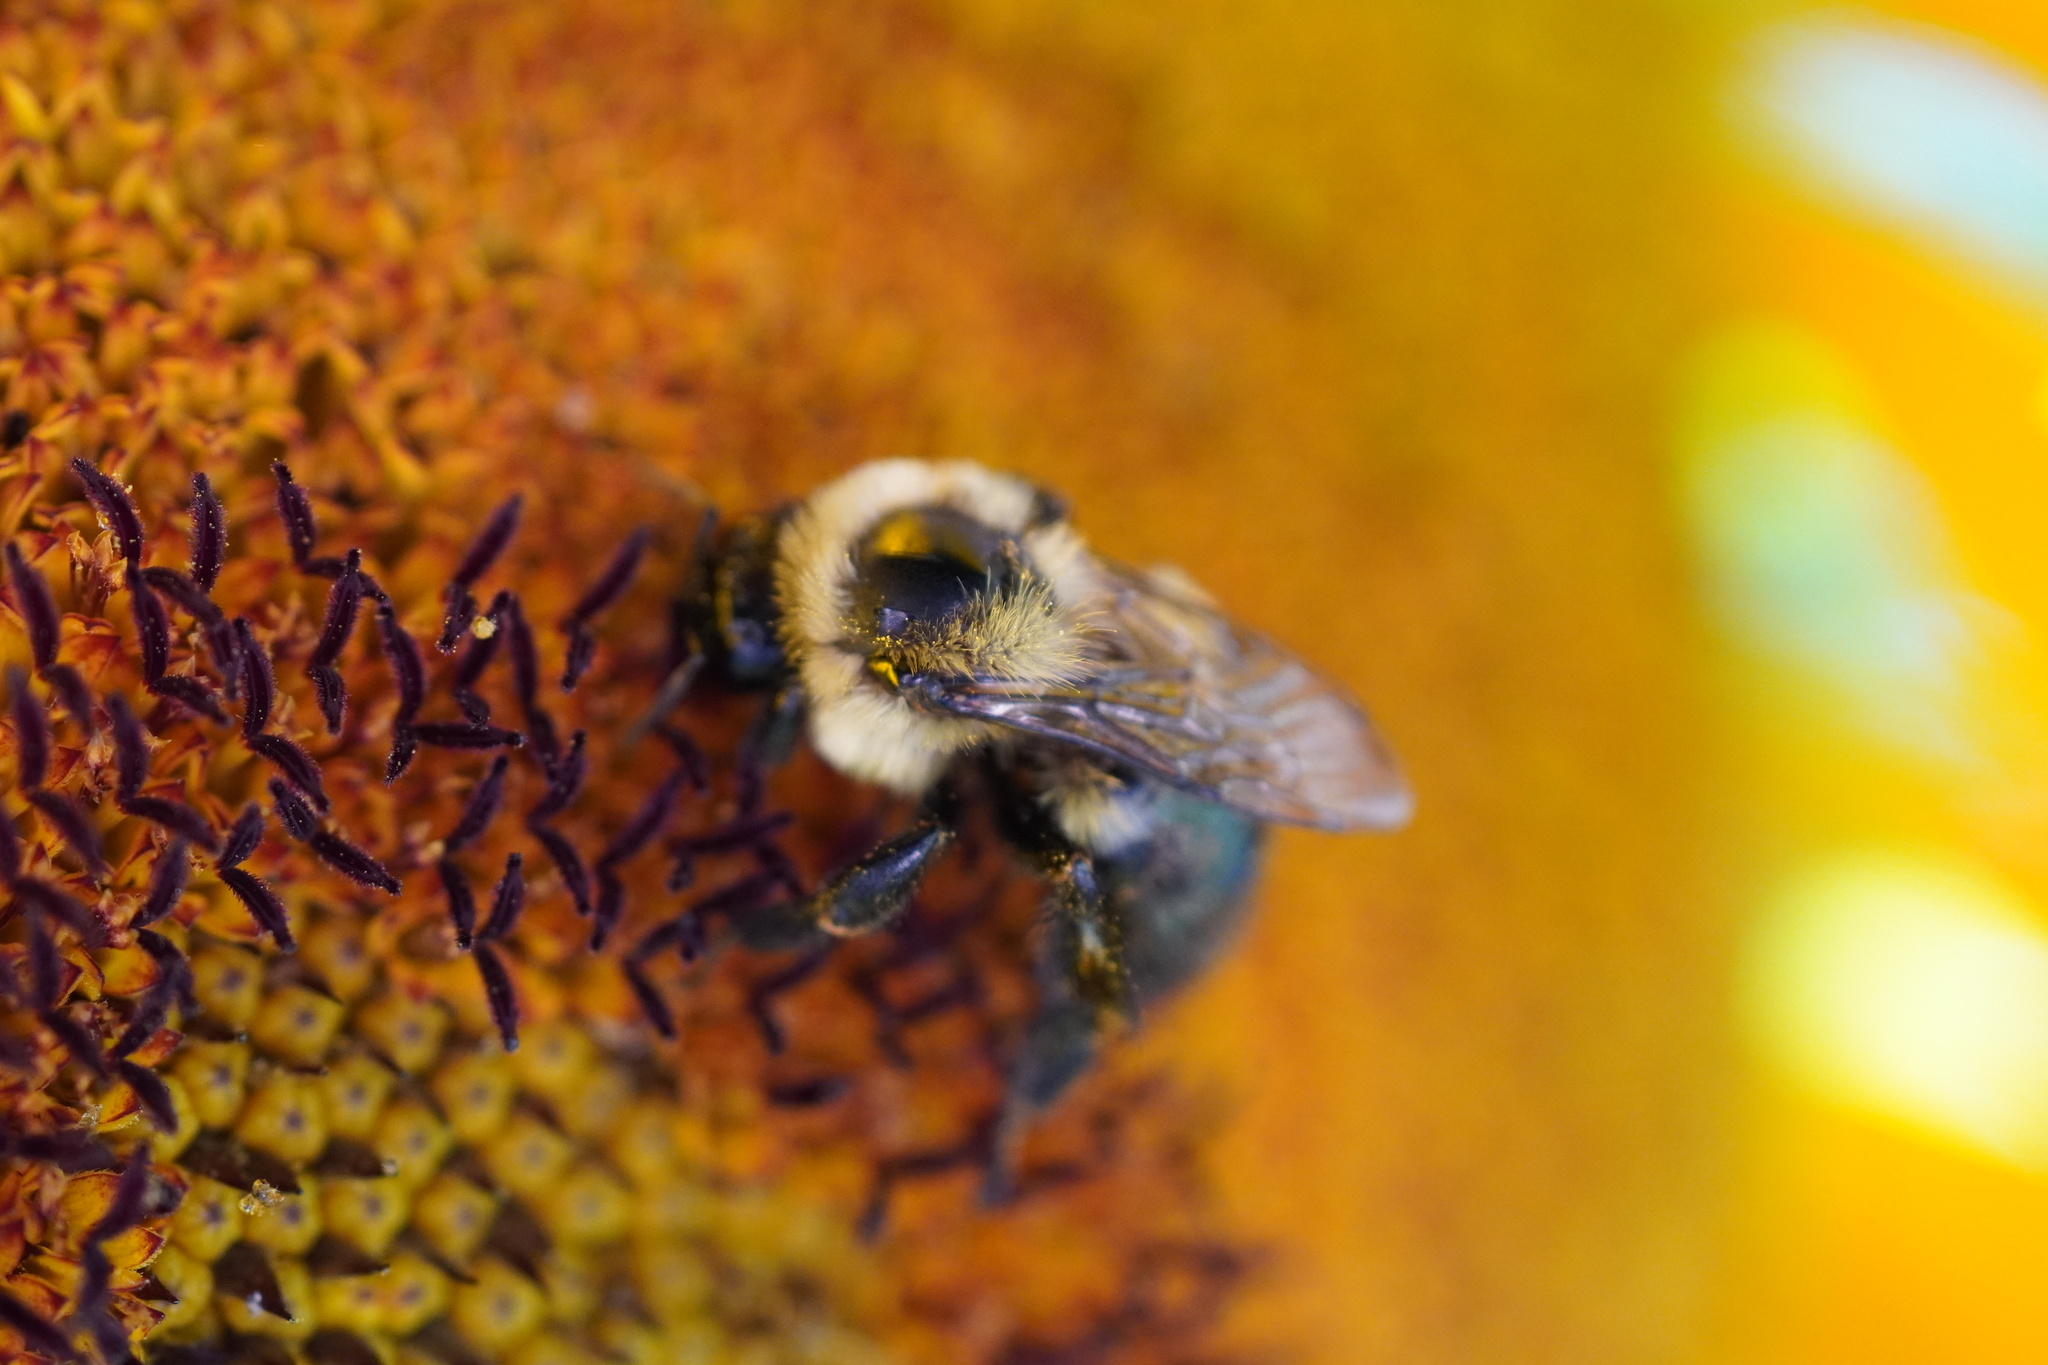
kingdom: Animalia
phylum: Arthropoda
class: Insecta
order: Hymenoptera
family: Apidae
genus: Bombus
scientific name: Bombus impatiens
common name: Common eastern bumble bee
